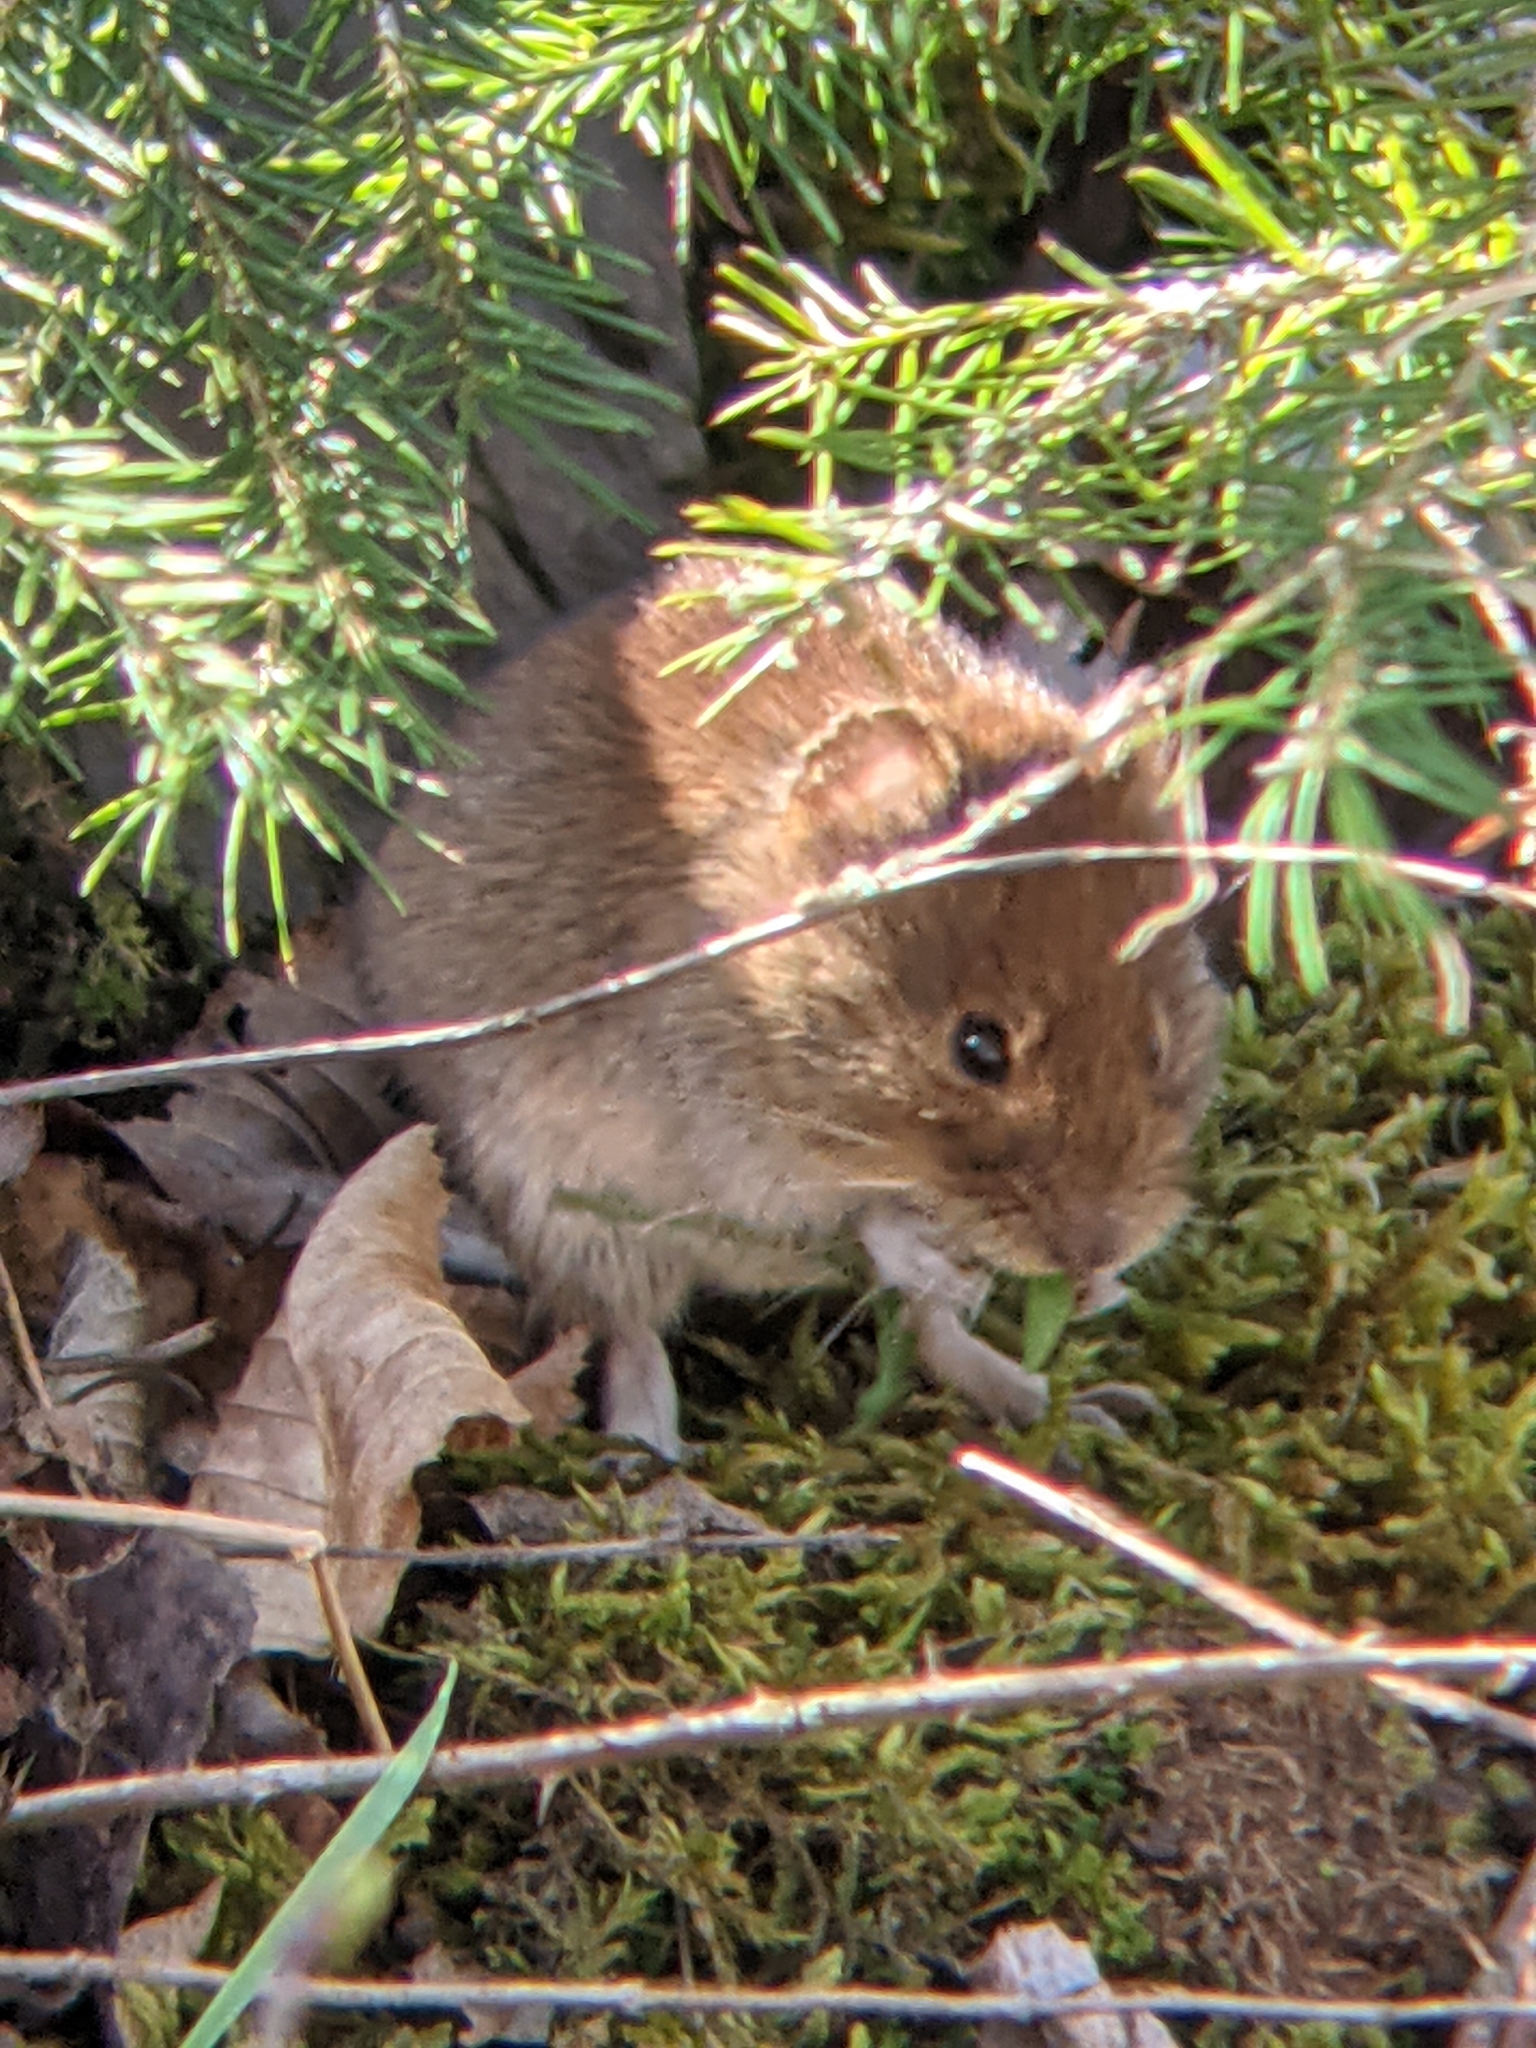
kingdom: Animalia
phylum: Chordata
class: Mammalia
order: Rodentia
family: Cricetidae
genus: Myodes
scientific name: Myodes glareolus
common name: Bank vole
